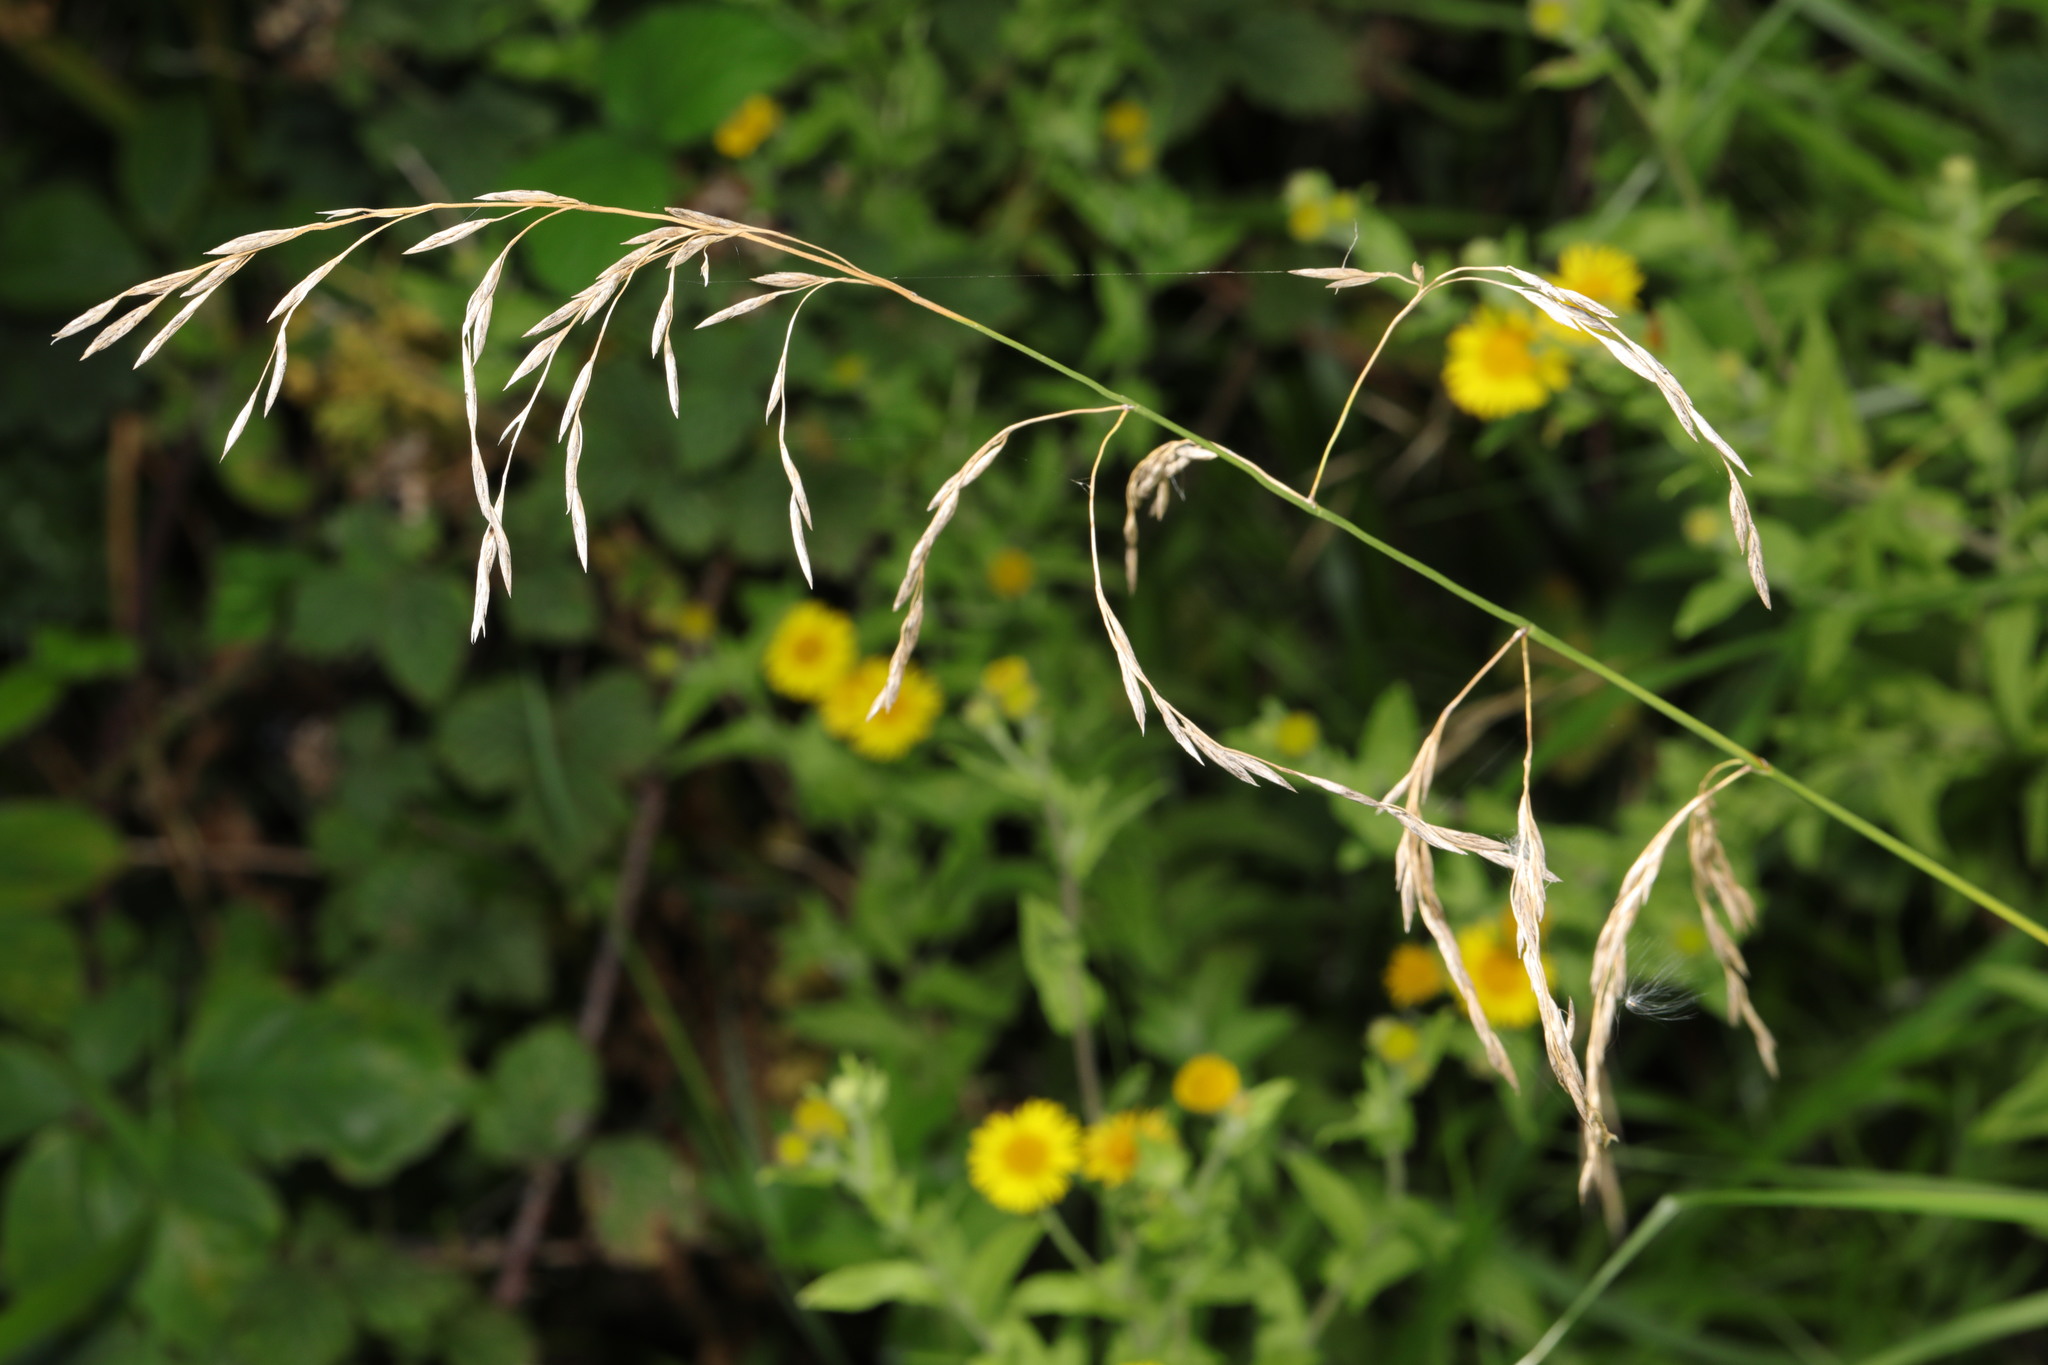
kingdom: Plantae
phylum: Tracheophyta
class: Liliopsida
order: Poales
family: Poaceae
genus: Lolium
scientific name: Lolium giganteum
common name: Giant fescue
